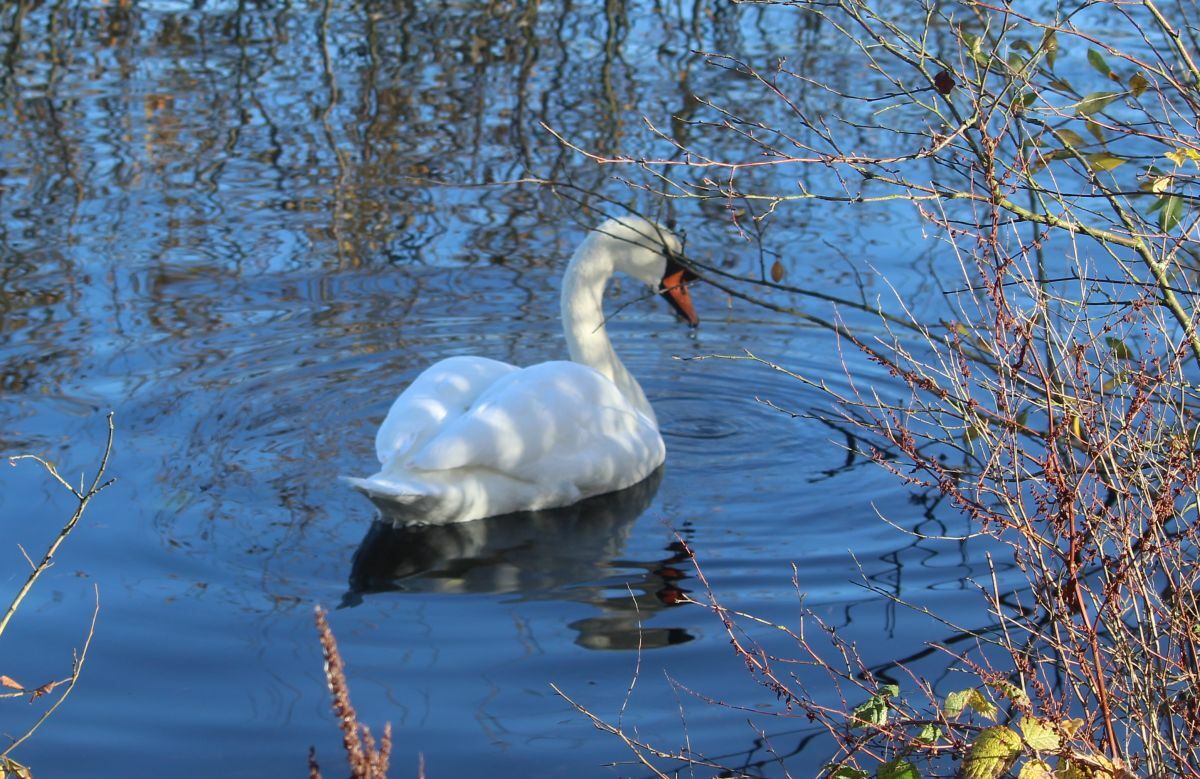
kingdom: Animalia
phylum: Chordata
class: Aves
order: Anseriformes
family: Anatidae
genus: Cygnus
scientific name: Cygnus olor
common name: Mute swan
